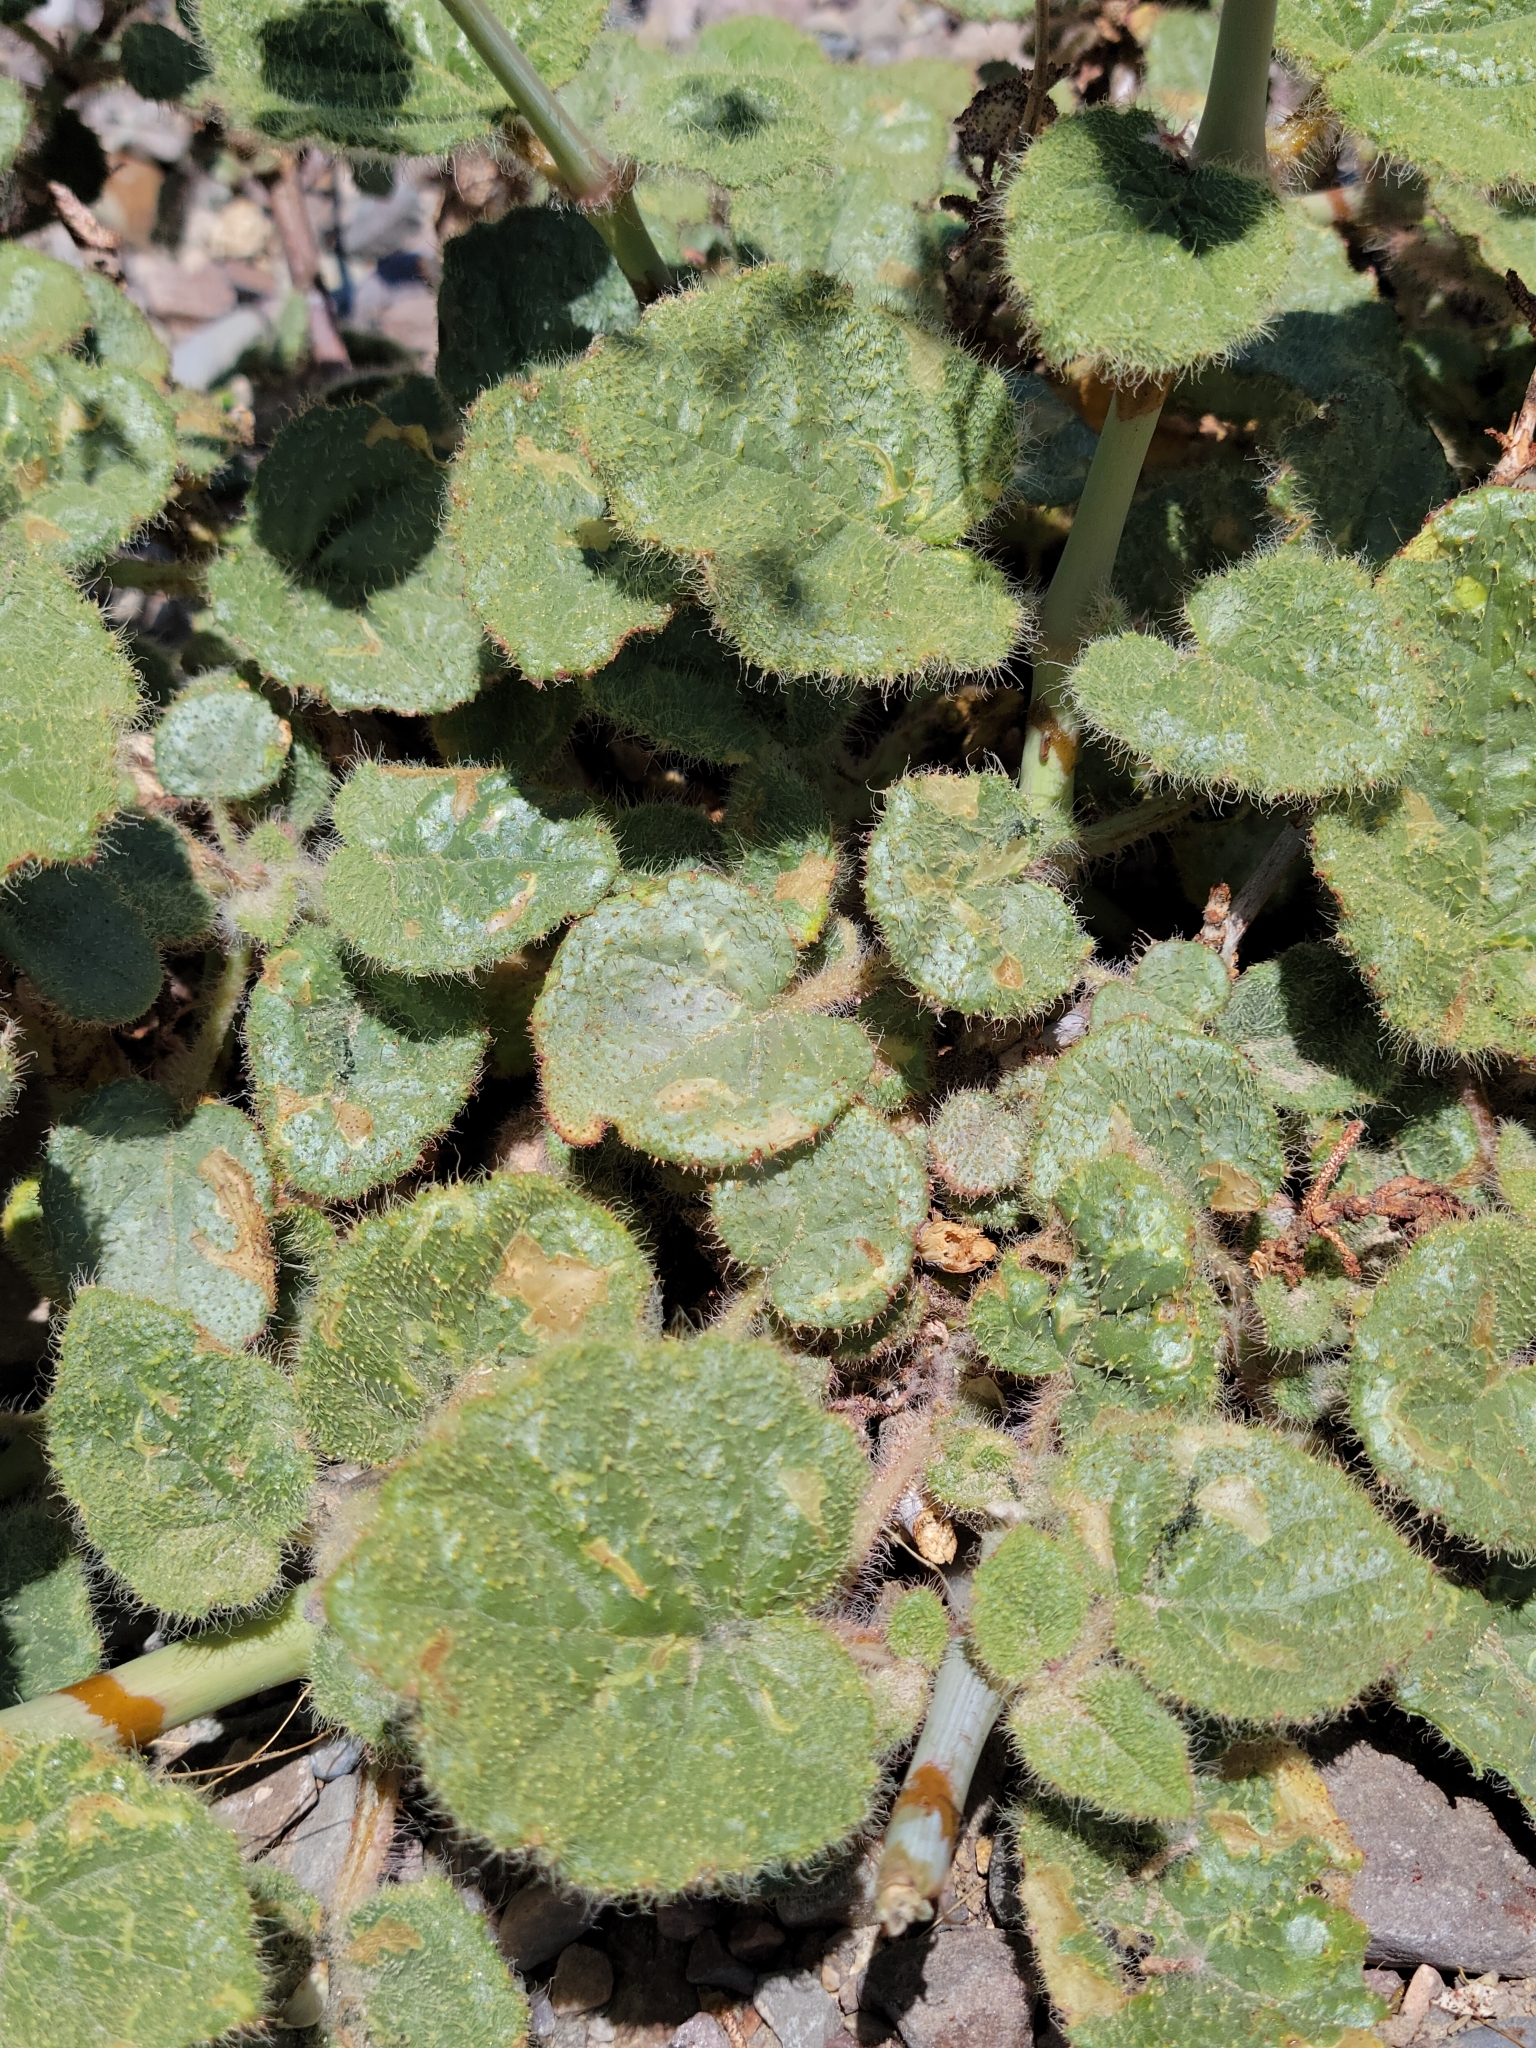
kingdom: Plantae
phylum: Tracheophyta
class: Magnoliopsida
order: Caryophyllales
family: Nyctaginaceae
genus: Anulocaulis
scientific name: Anulocaulis annulatus
